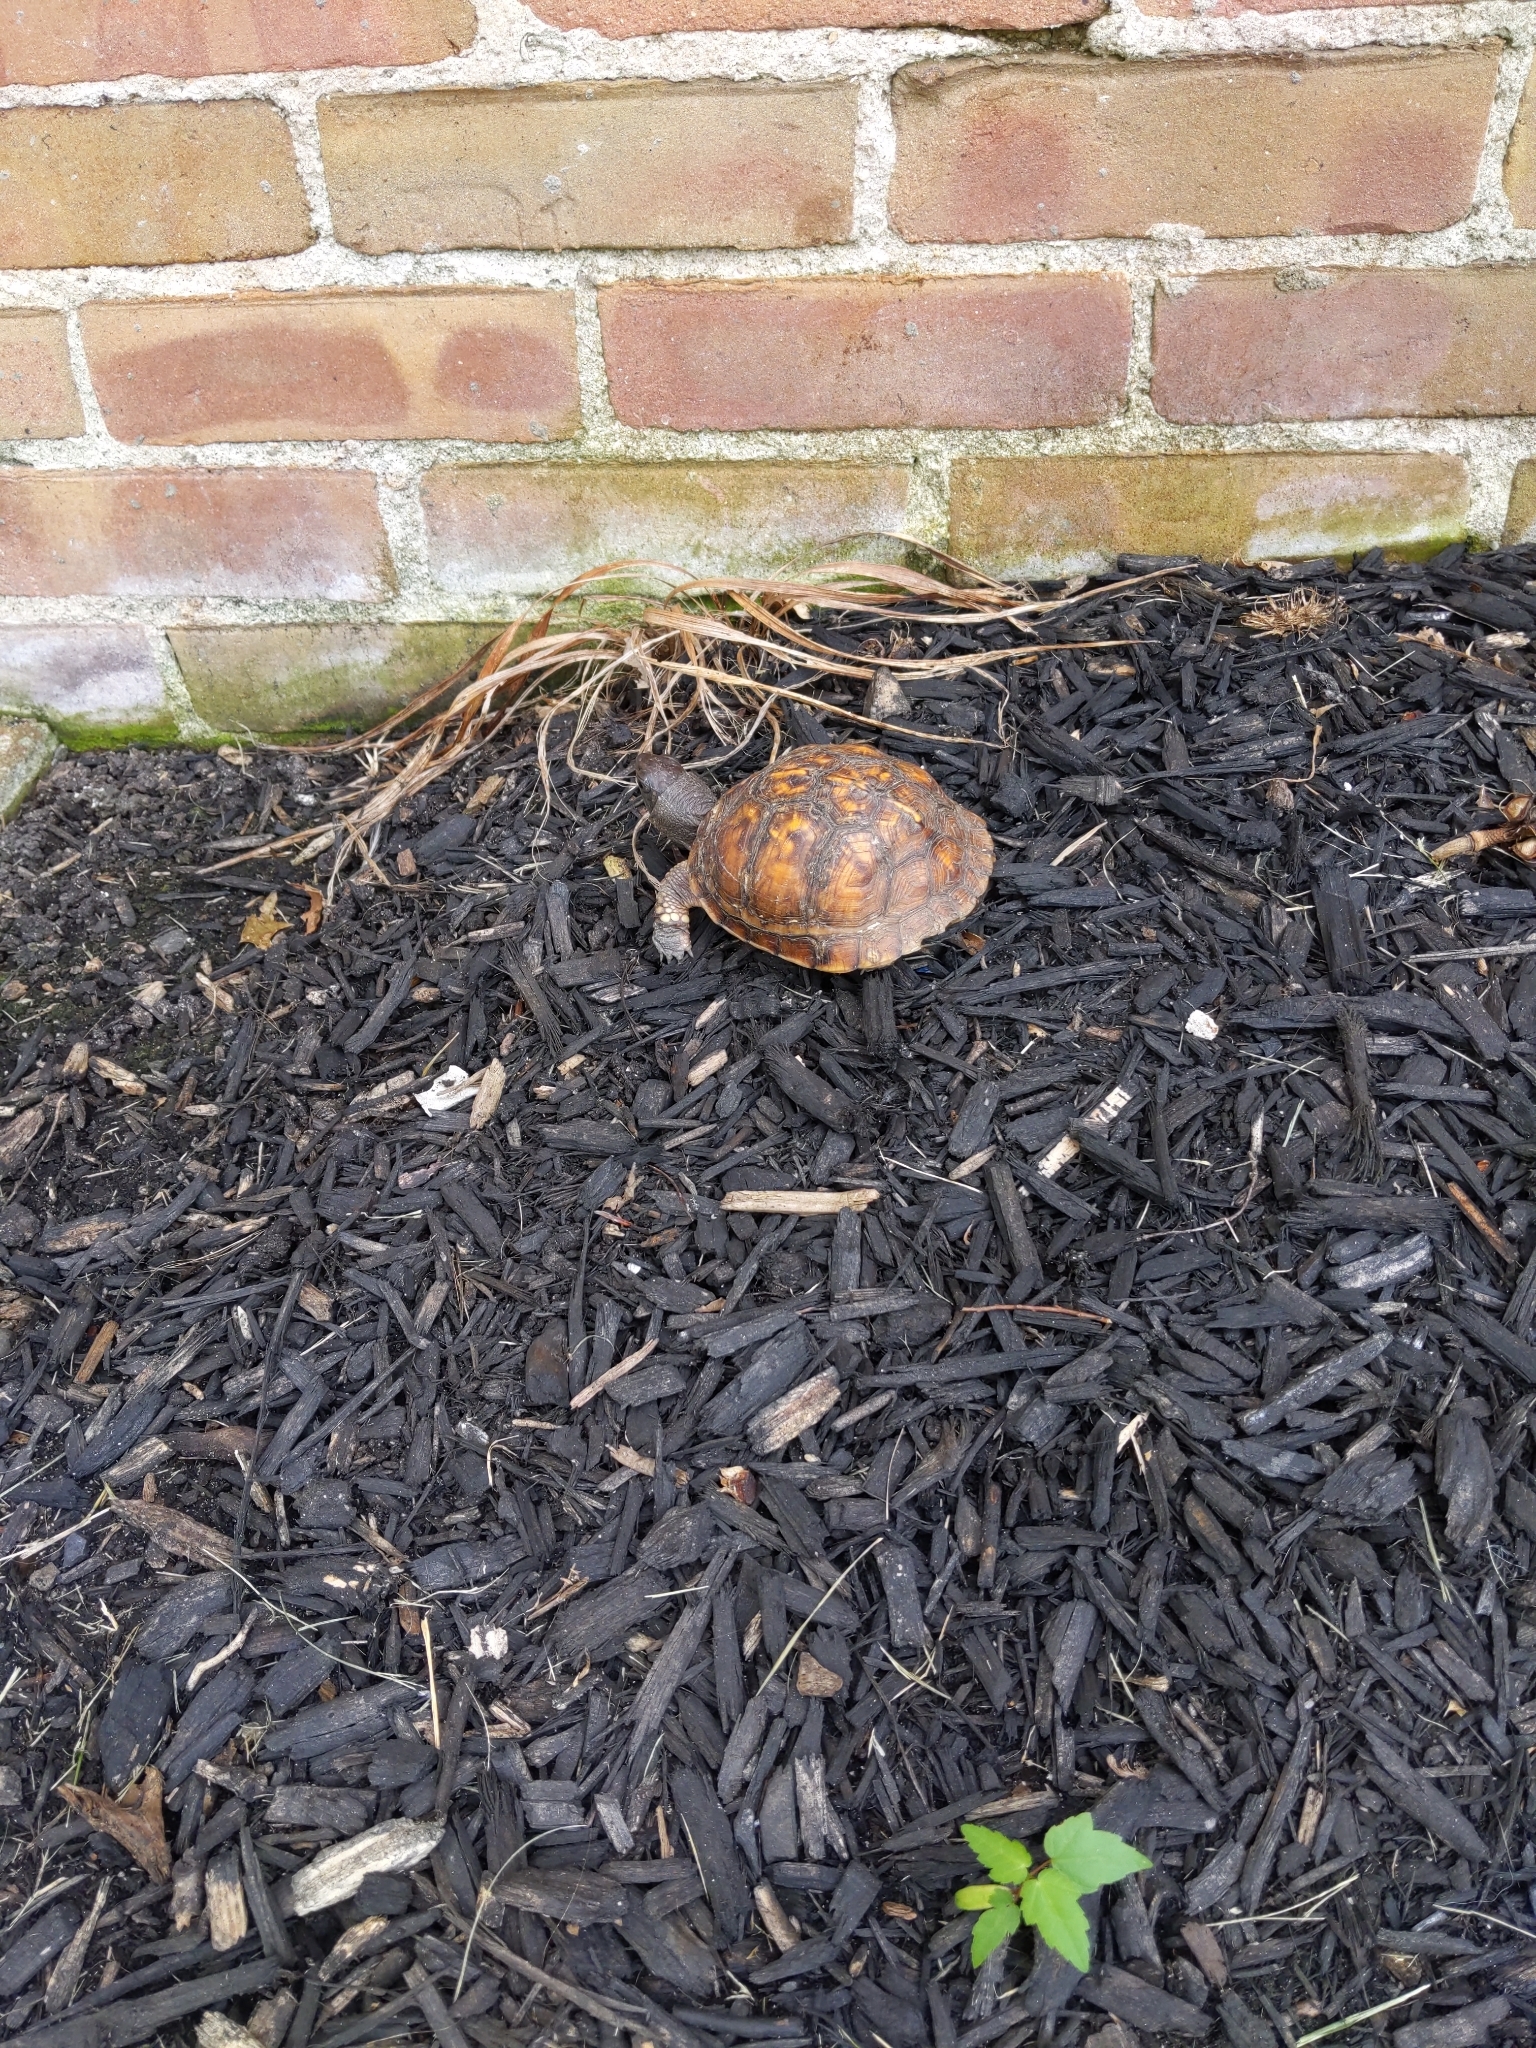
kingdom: Animalia
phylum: Chordata
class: Testudines
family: Emydidae
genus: Terrapene
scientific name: Terrapene carolina
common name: Common box turtle
